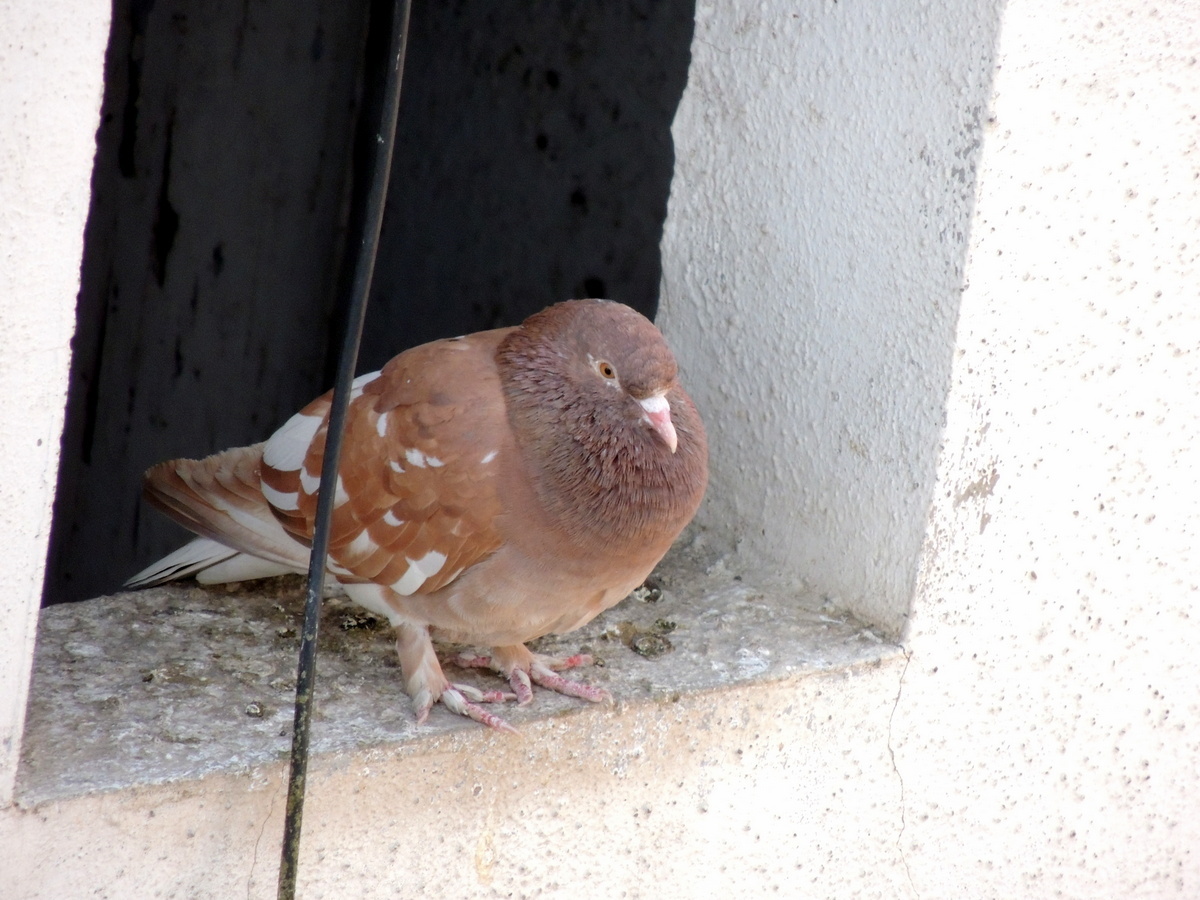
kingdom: Animalia
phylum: Chordata
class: Aves
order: Columbiformes
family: Columbidae
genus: Columba
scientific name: Columba livia
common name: Rock pigeon
